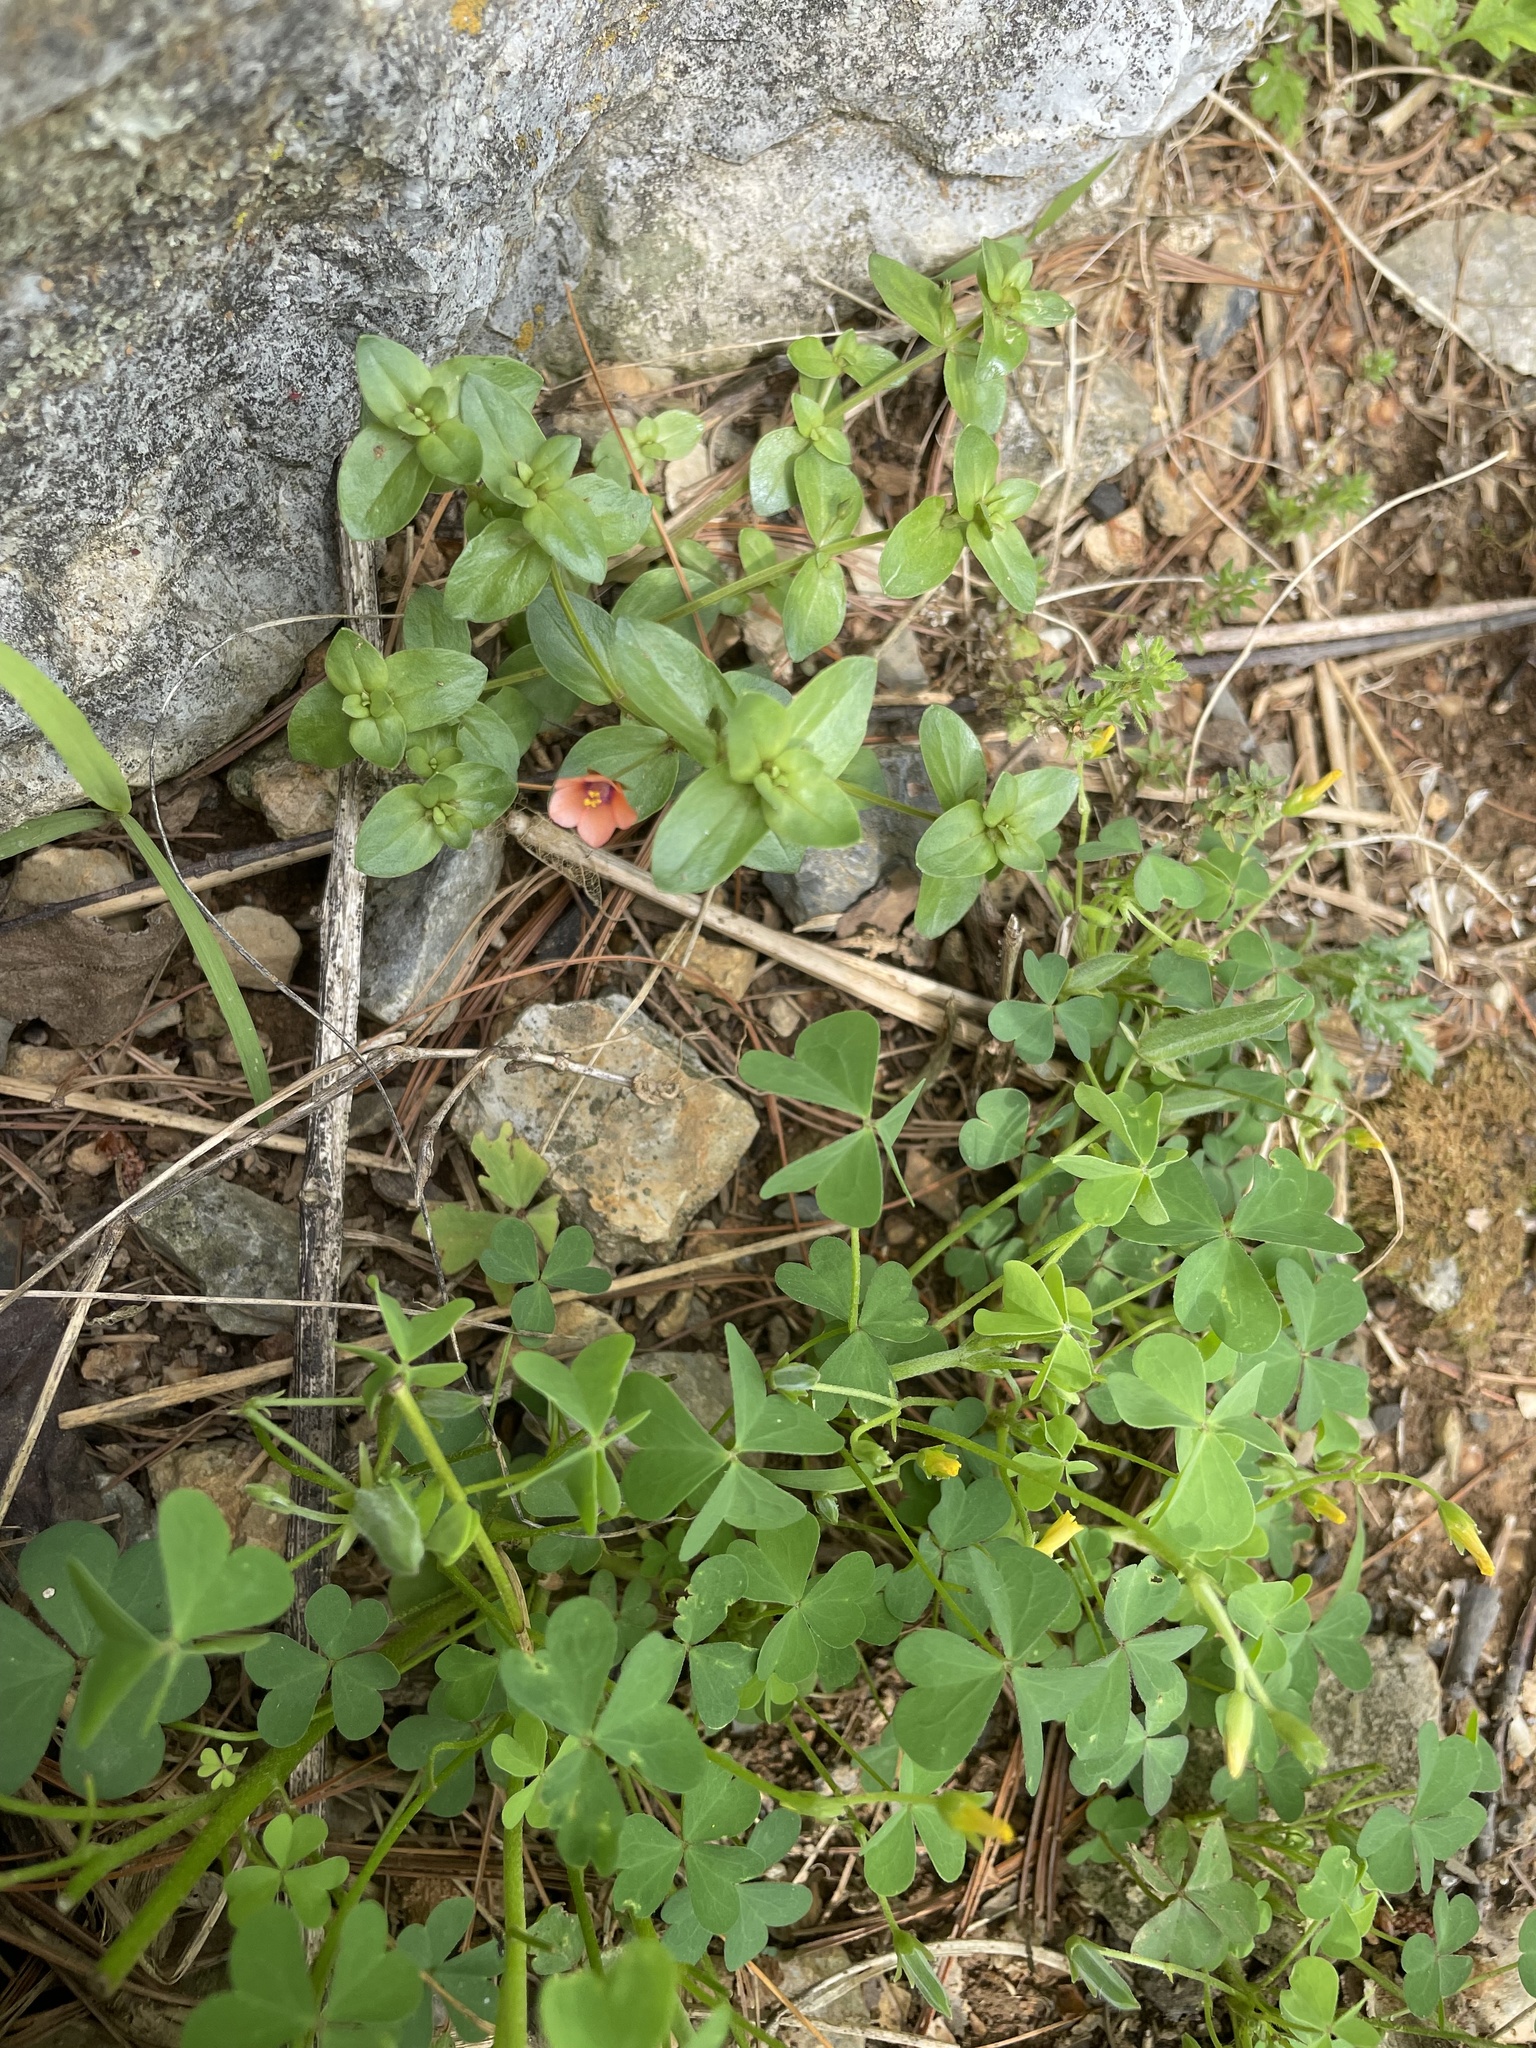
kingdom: Plantae
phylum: Tracheophyta
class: Magnoliopsida
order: Ericales
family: Primulaceae
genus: Lysimachia
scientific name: Lysimachia arvensis
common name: Scarlet pimpernel
